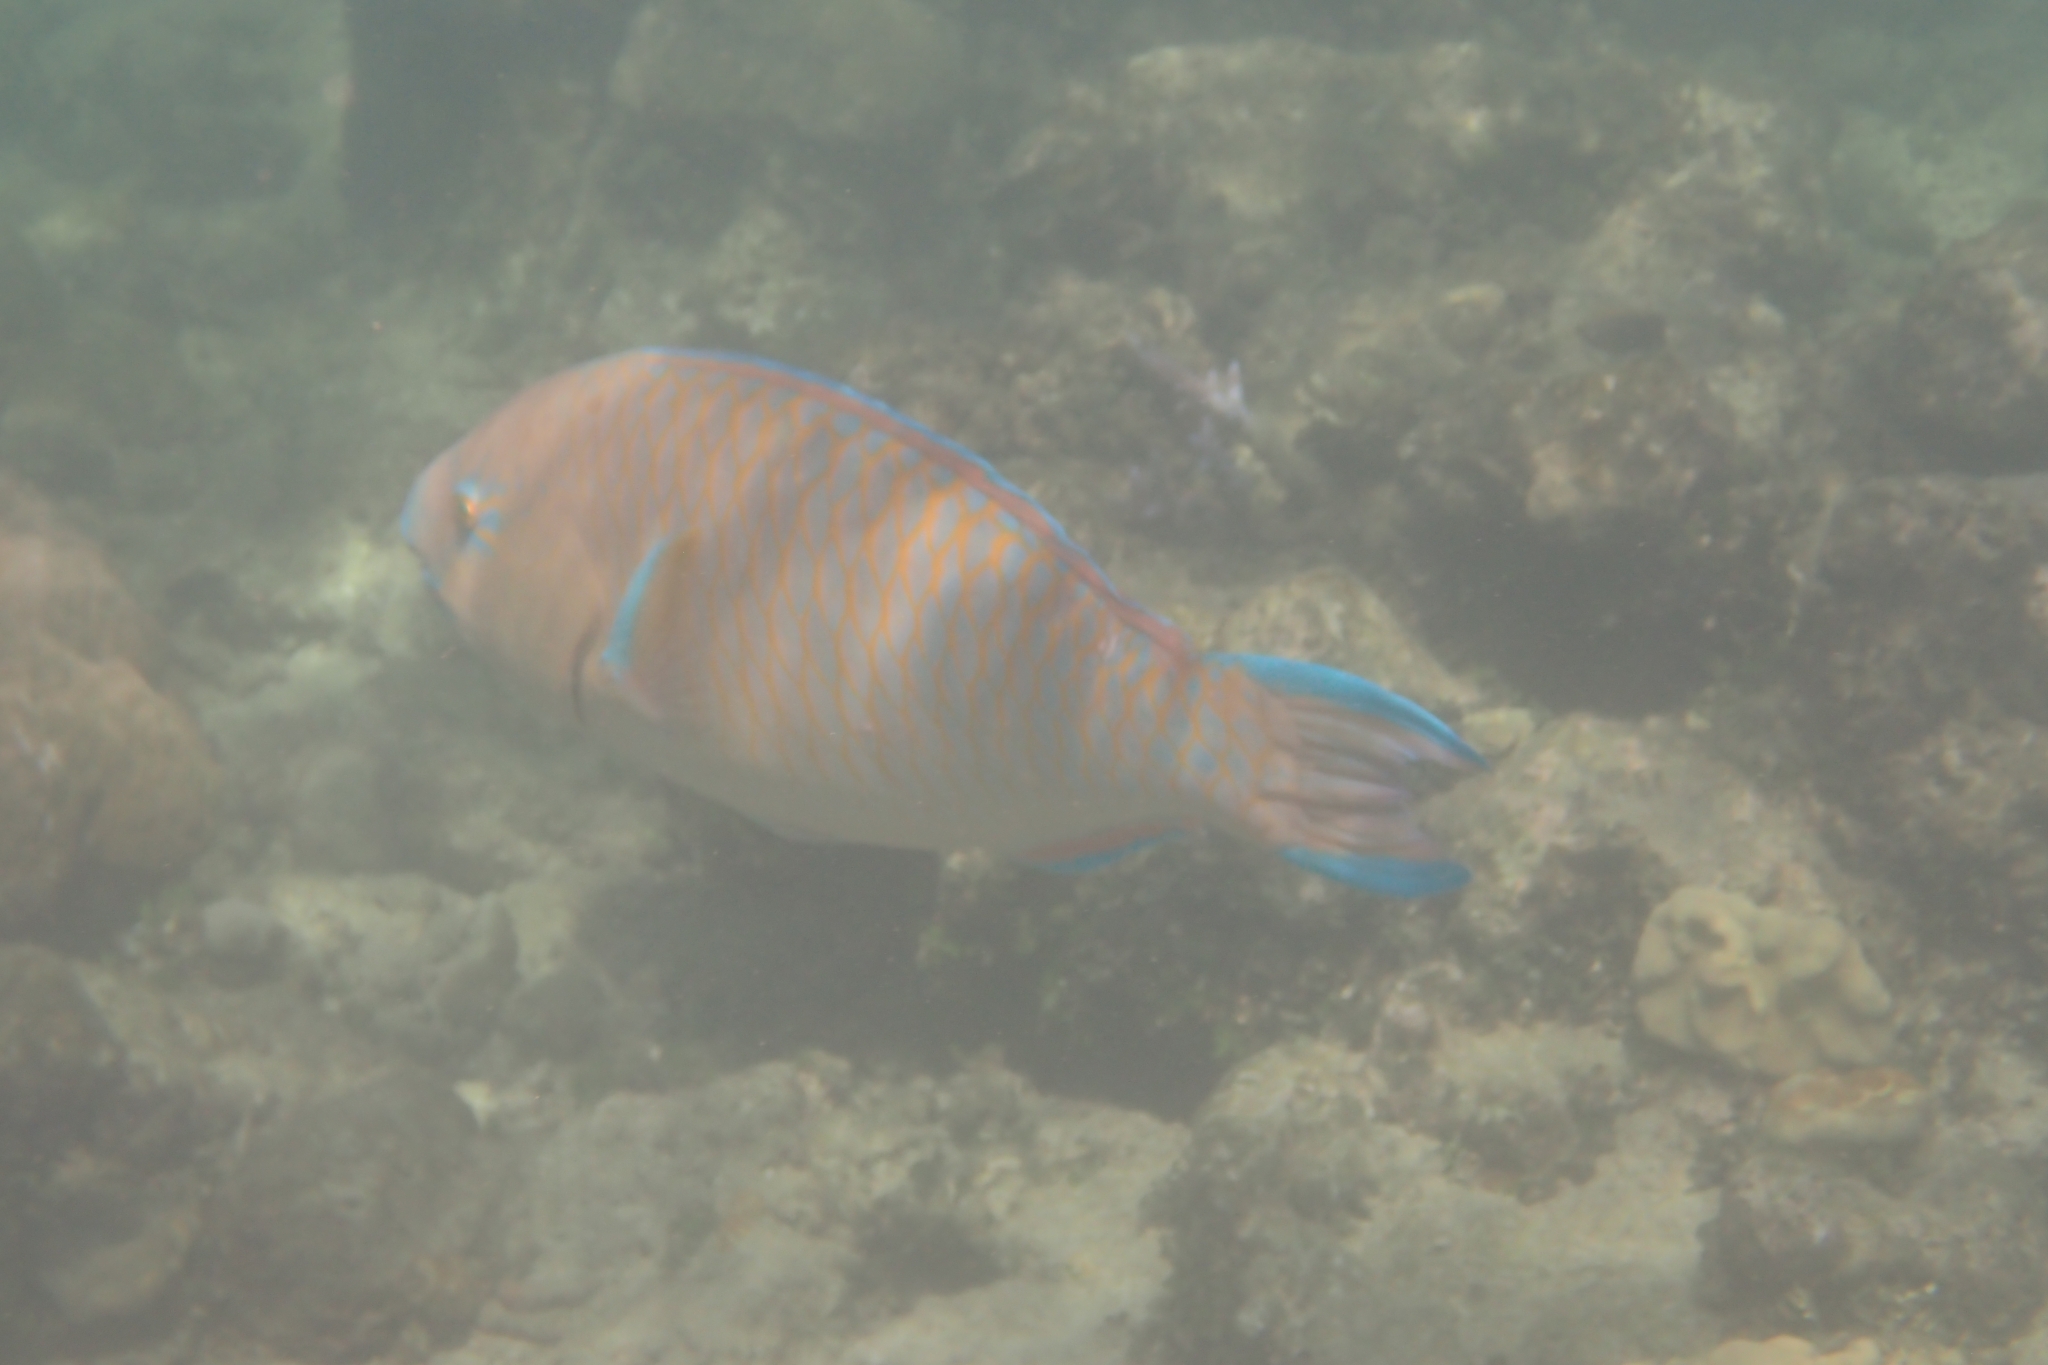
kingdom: Animalia
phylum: Chordata
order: Perciformes
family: Scaridae
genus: Scarus
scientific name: Scarus ghobban
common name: Blue-barred parrotfish
